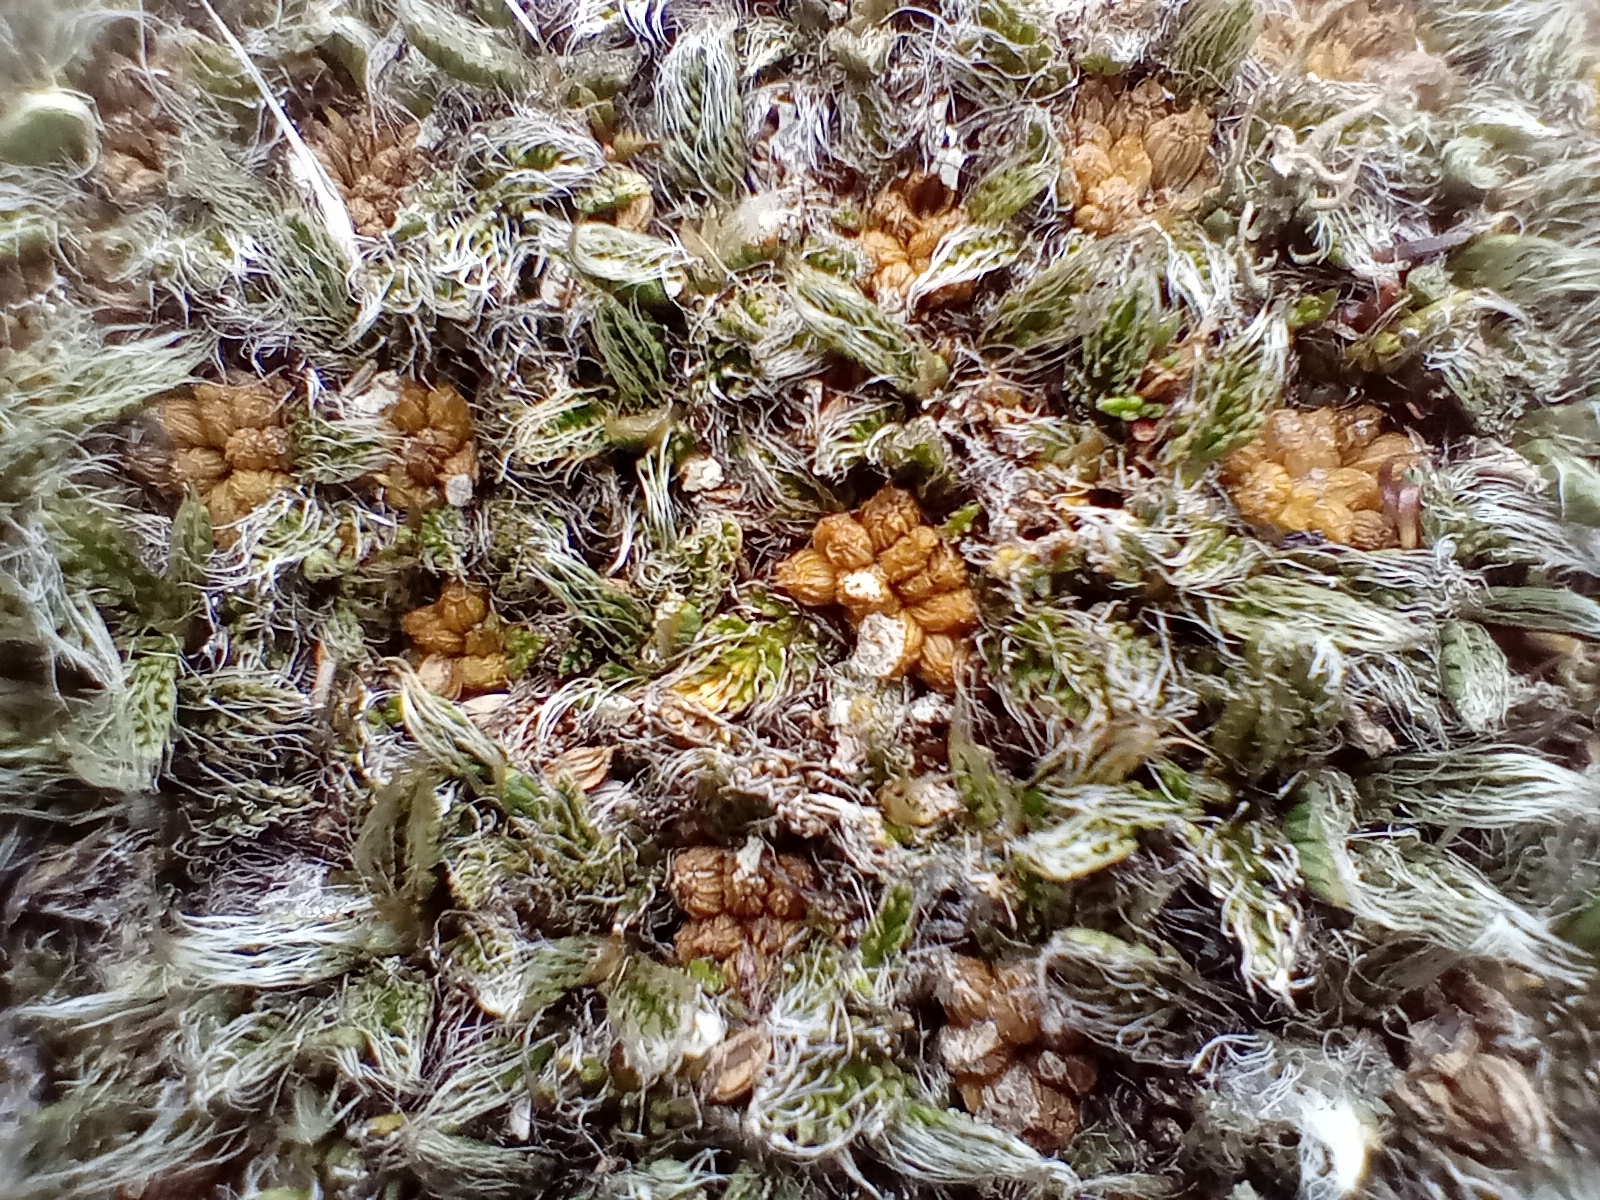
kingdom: Plantae
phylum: Tracheophyta
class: Magnoliopsida
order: Apiales
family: Apiaceae
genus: Anisotome
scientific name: Anisotome imbricata
